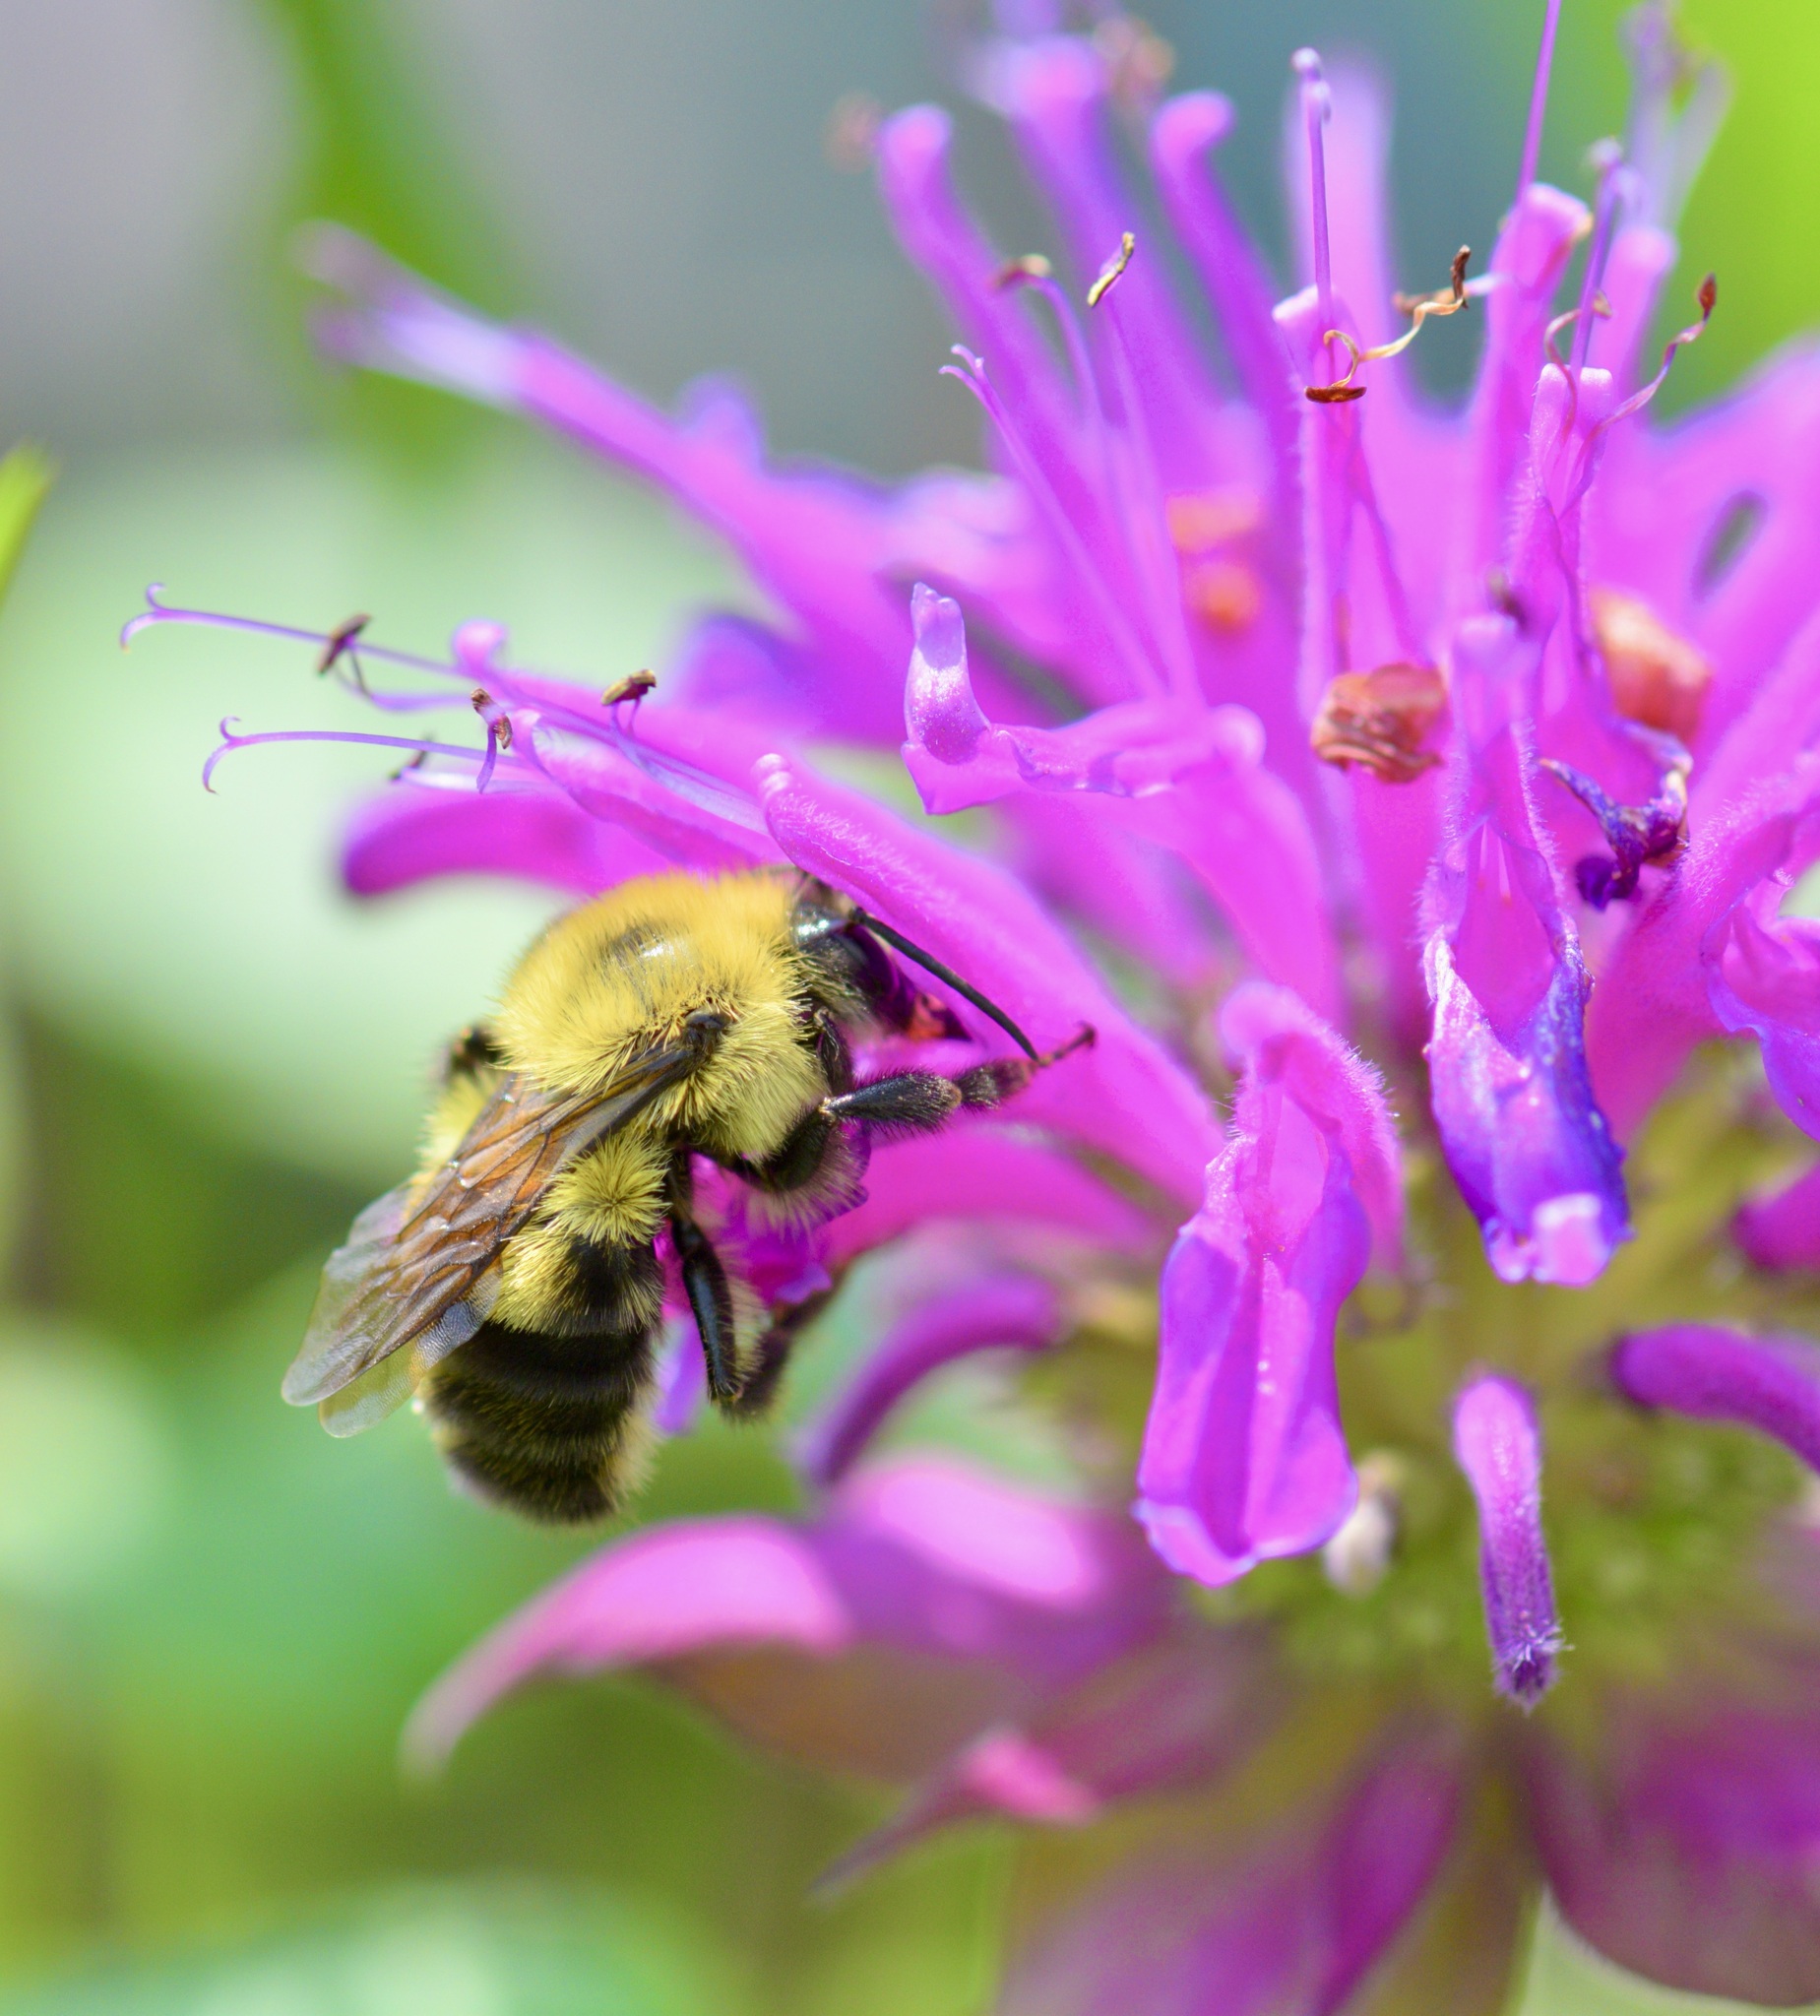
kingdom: Animalia
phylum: Arthropoda
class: Insecta
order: Hymenoptera
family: Apidae
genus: Bombus
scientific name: Bombus bimaculatus
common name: Two-spotted bumble bee
